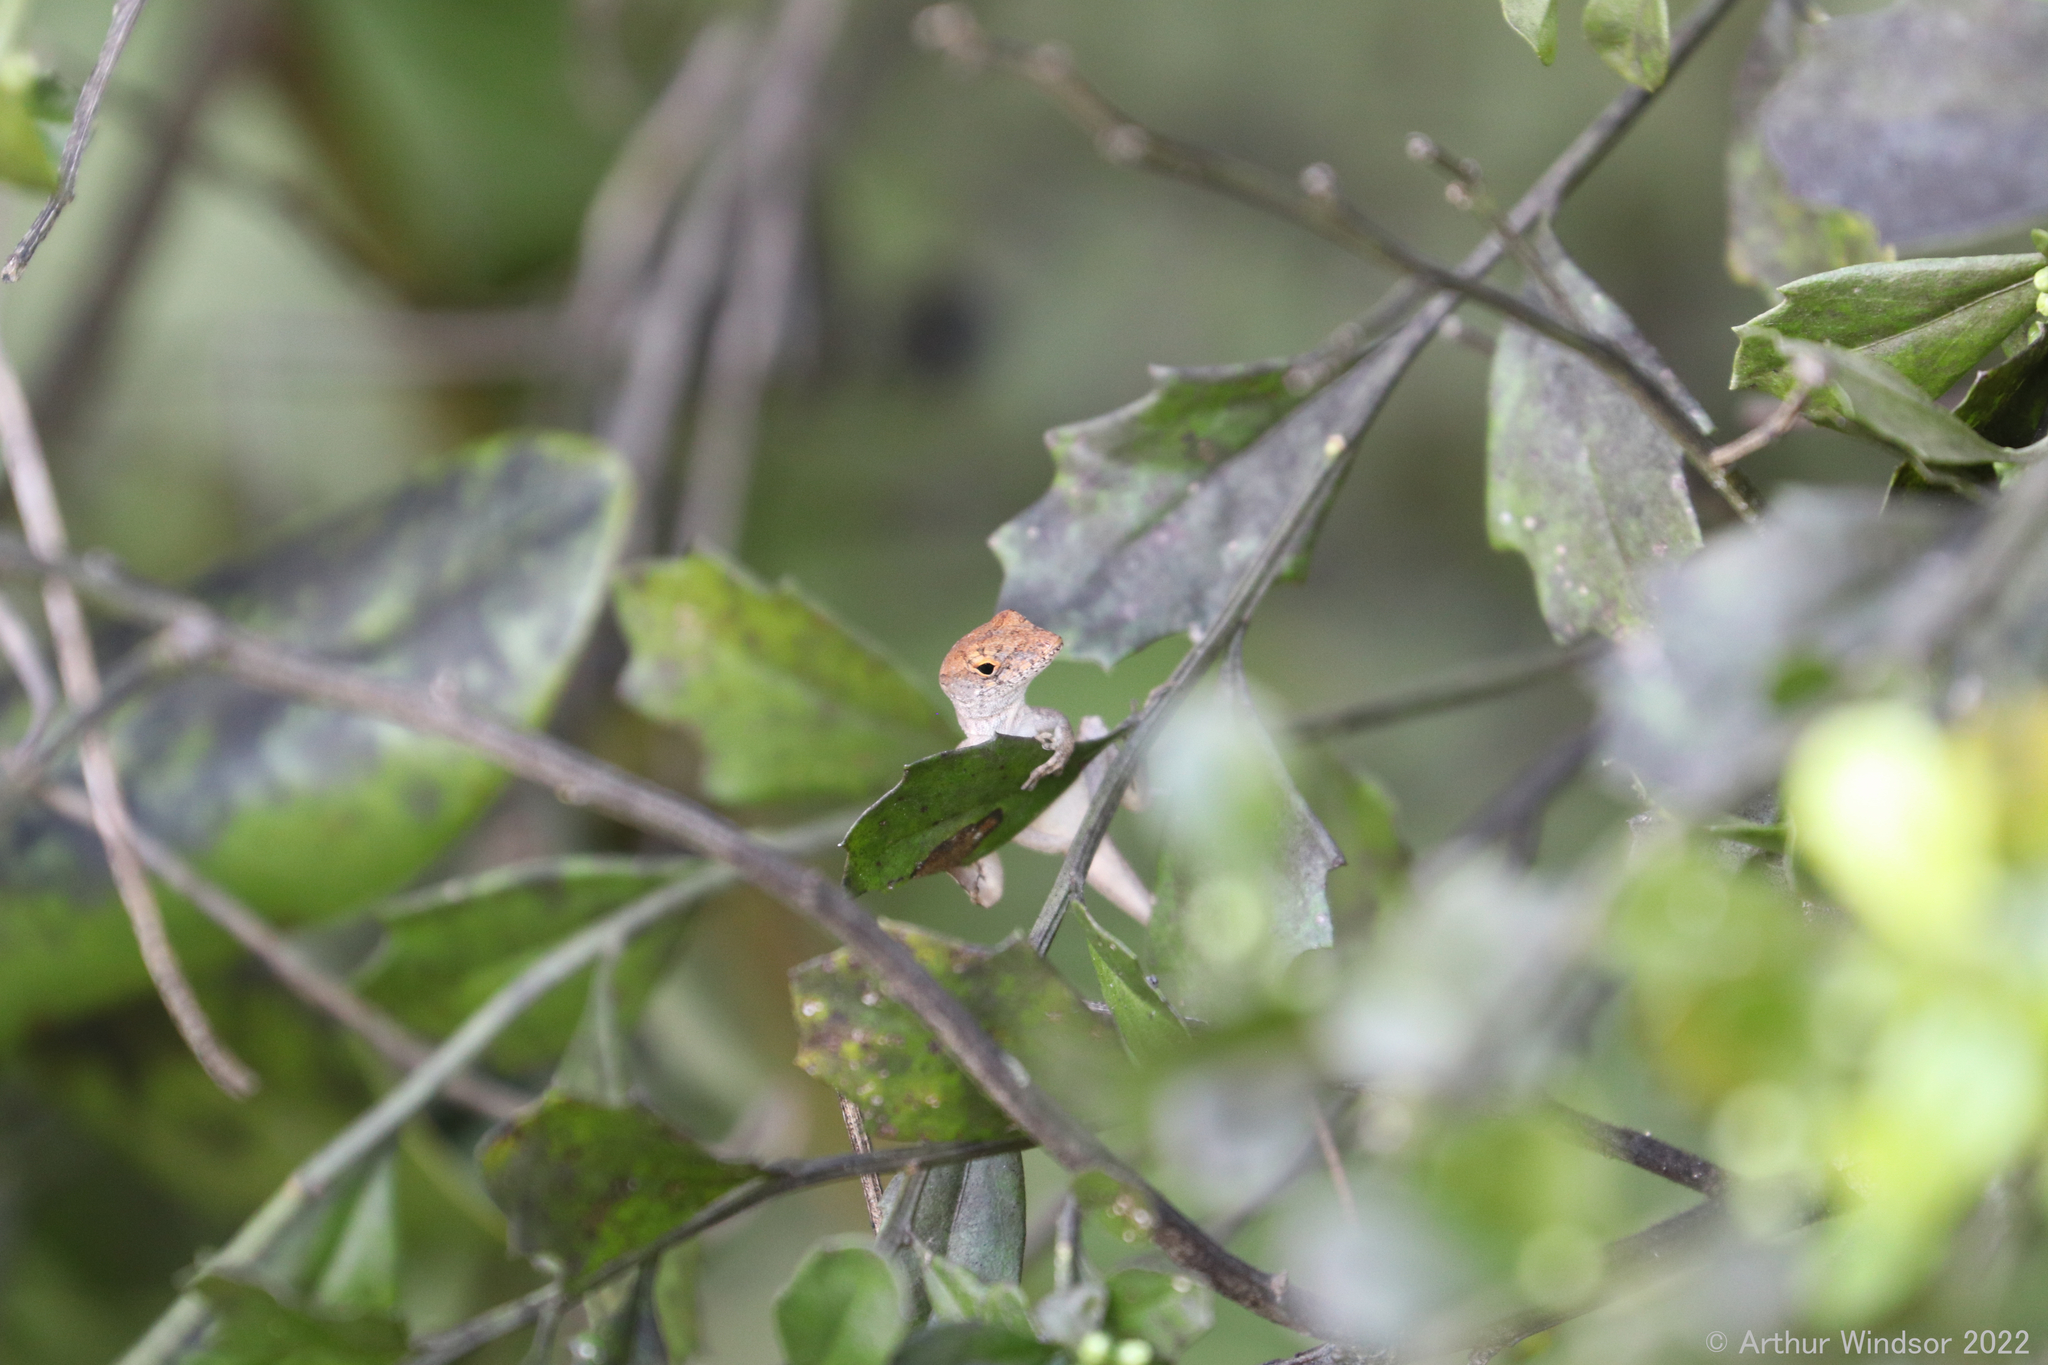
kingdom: Animalia
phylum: Chordata
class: Squamata
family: Dactyloidae
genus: Anolis
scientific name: Anolis sagrei
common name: Brown anole
